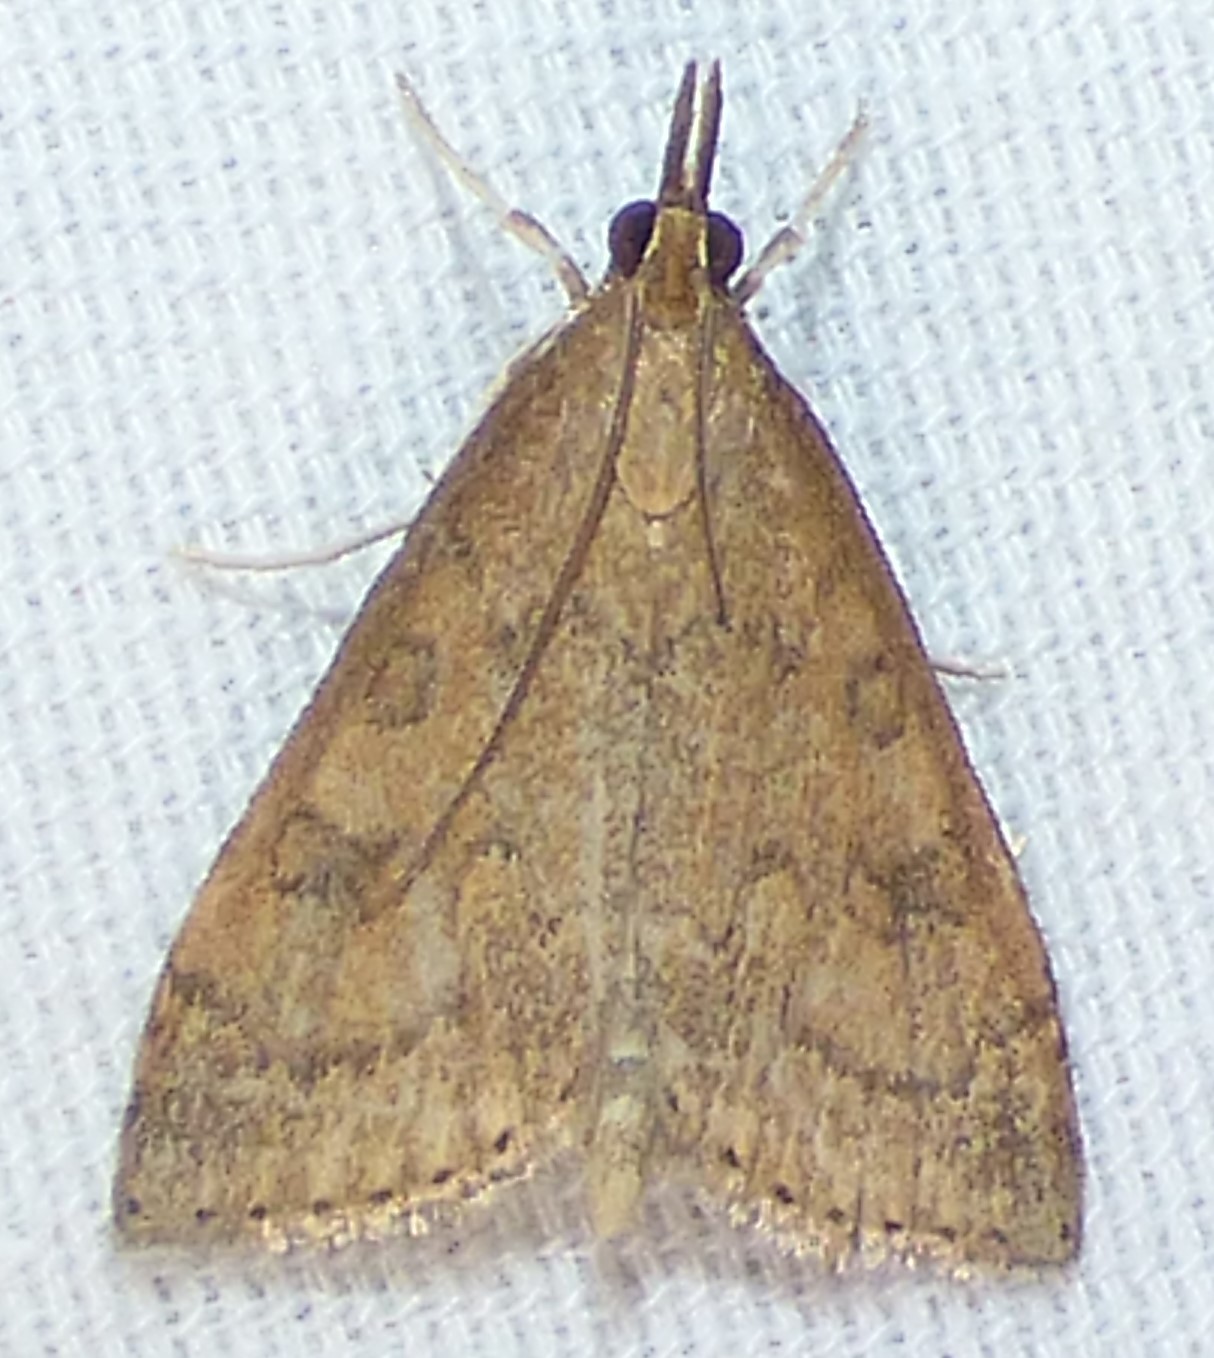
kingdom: Animalia
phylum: Arthropoda
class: Insecta
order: Lepidoptera
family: Crambidae
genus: Udea
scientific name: Udea rubigalis
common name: Celery leaftier moth
